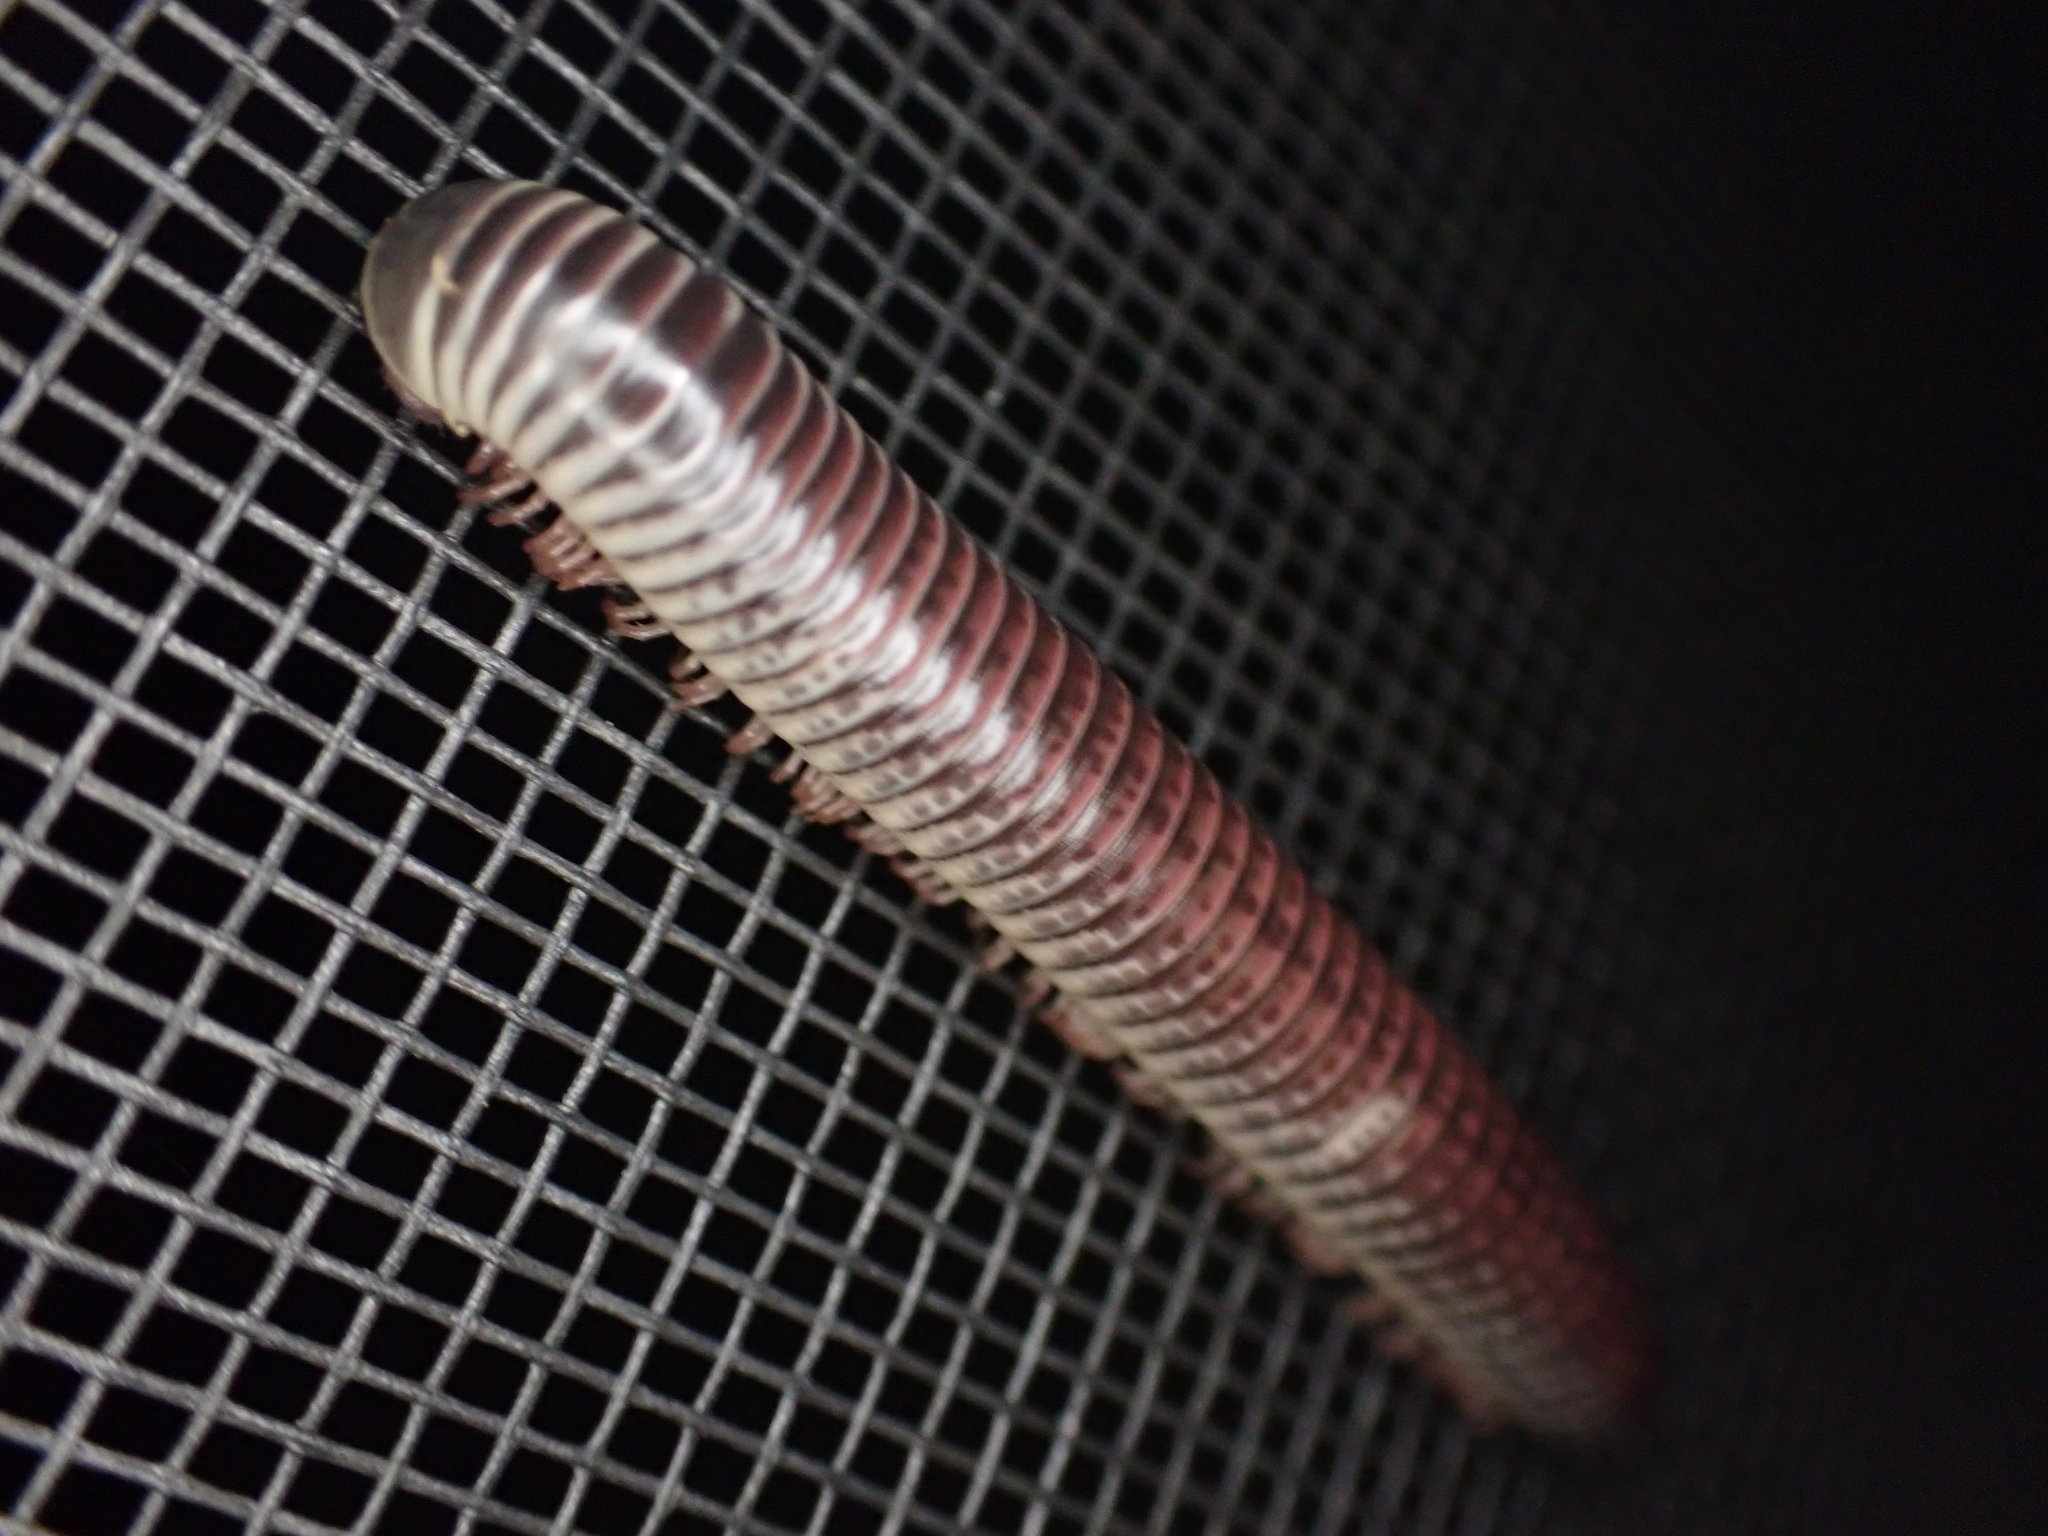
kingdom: Animalia
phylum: Arthropoda
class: Diplopoda
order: Spirobolida
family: Spirobolidae
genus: Chicobolus
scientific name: Chicobolus spinigerus
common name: Florida ivory millipede
